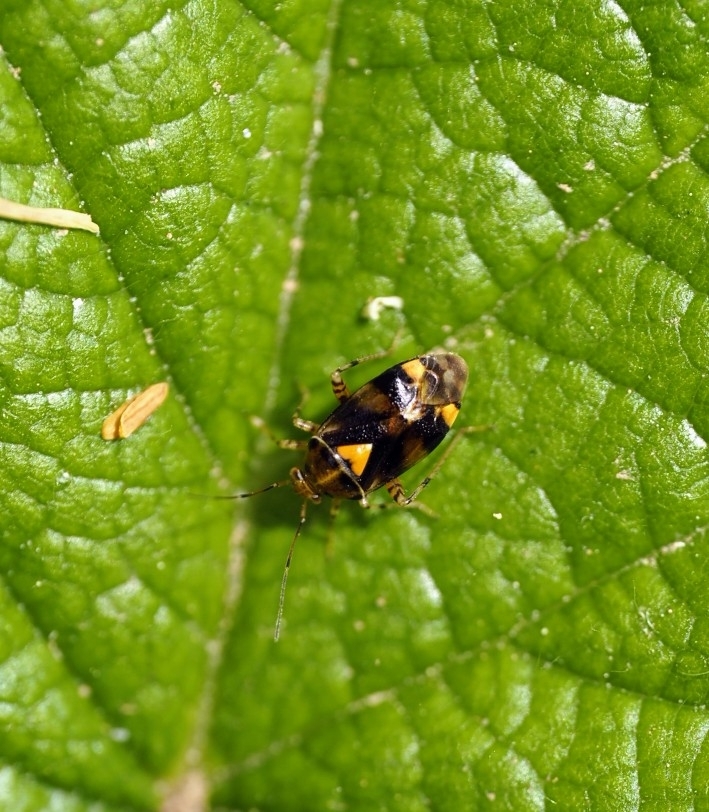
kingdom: Animalia
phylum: Arthropoda
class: Insecta
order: Hemiptera
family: Miridae
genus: Liocoris
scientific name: Liocoris tripustulatus
